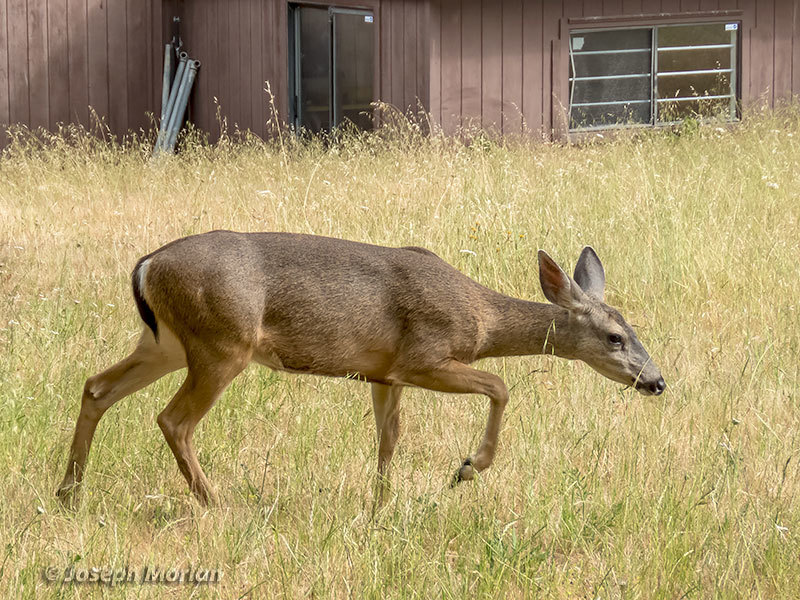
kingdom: Animalia
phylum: Chordata
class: Mammalia
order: Artiodactyla
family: Cervidae
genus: Odocoileus
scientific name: Odocoileus hemionus
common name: Mule deer
